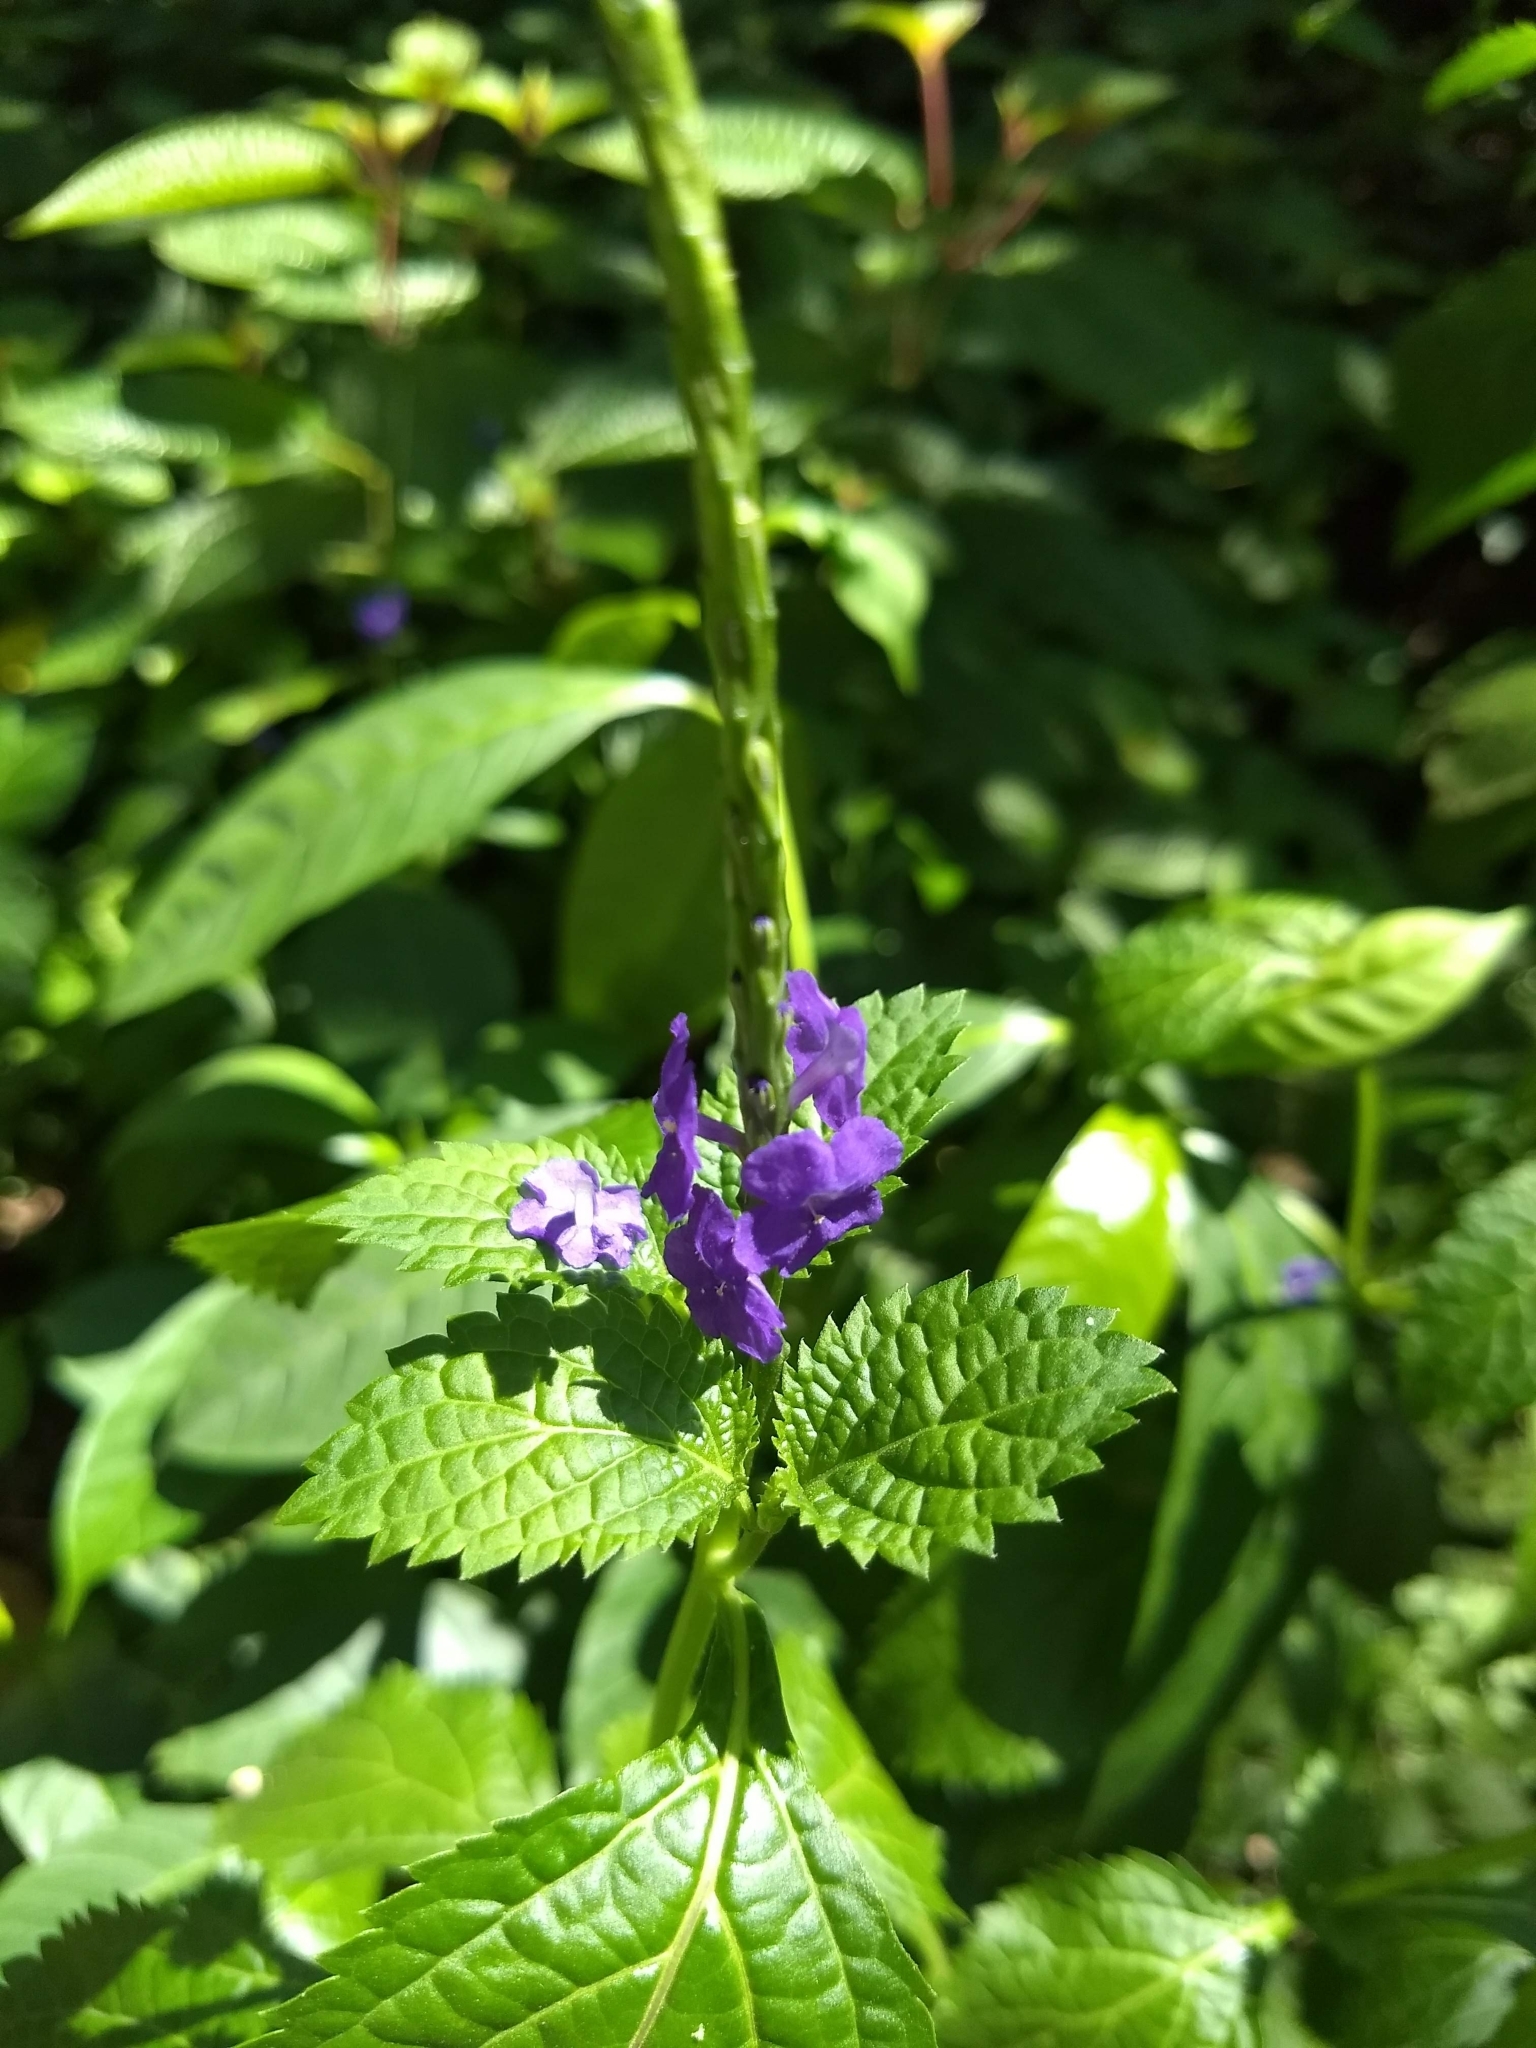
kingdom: Plantae
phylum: Tracheophyta
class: Magnoliopsida
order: Lamiales
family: Verbenaceae
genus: Stachytarpheta
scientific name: Stachytarpheta jamaicensis
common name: Light-blue snakeweed
